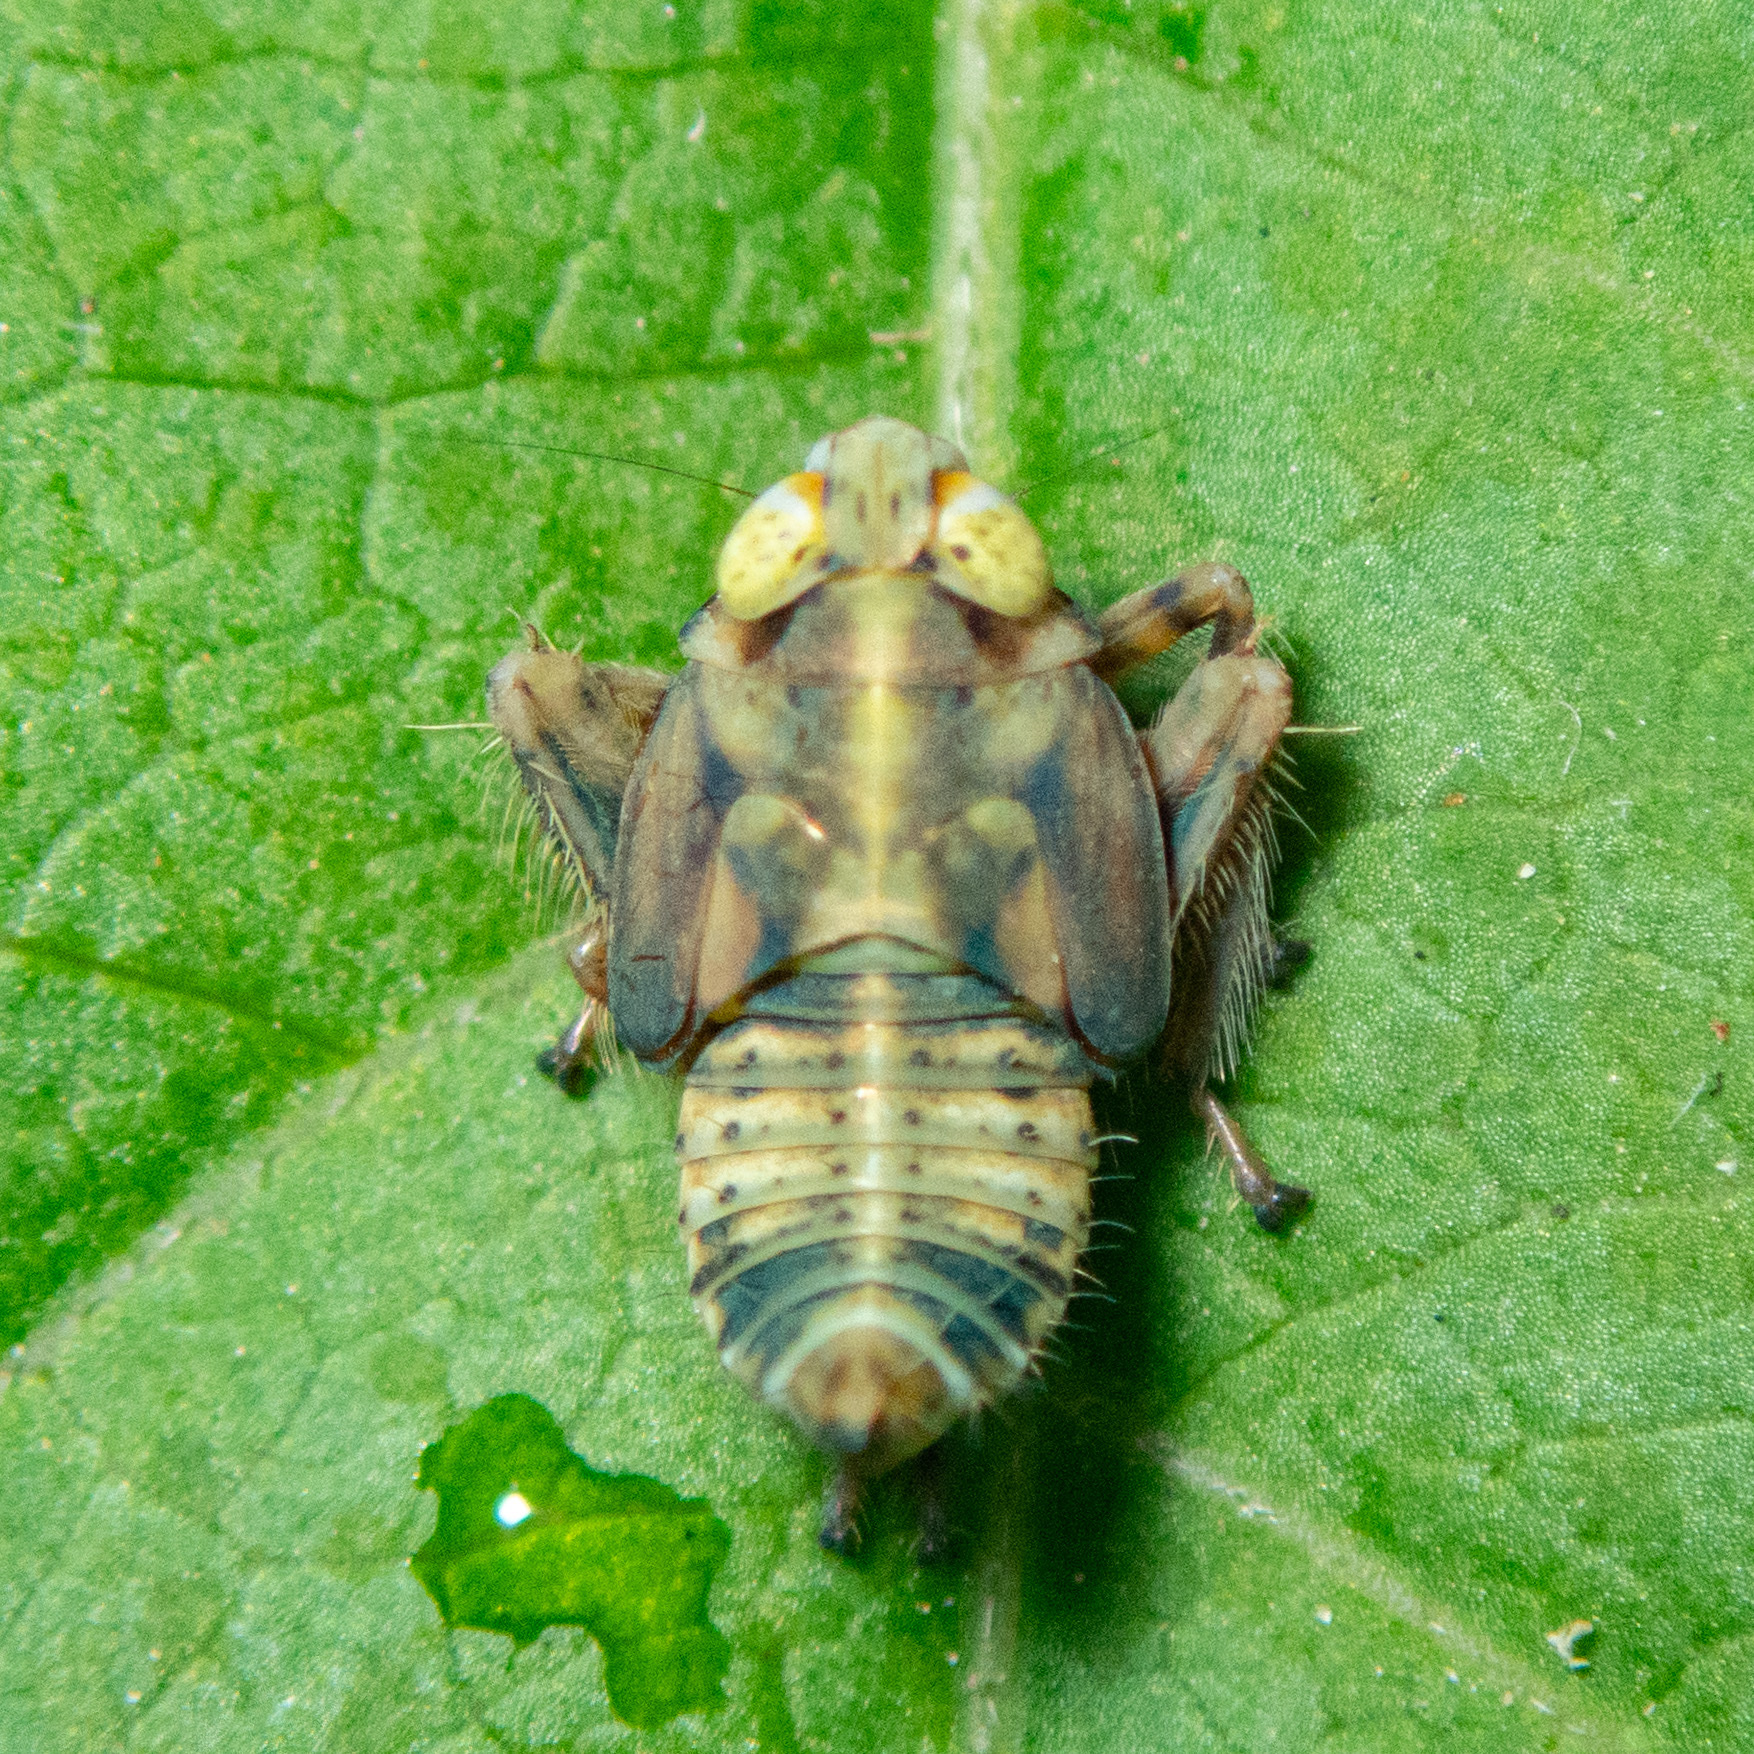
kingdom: Animalia
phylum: Arthropoda
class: Insecta
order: Hemiptera
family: Cicadellidae
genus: Jikradia
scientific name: Jikradia olitoria
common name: Coppery leafhopper
